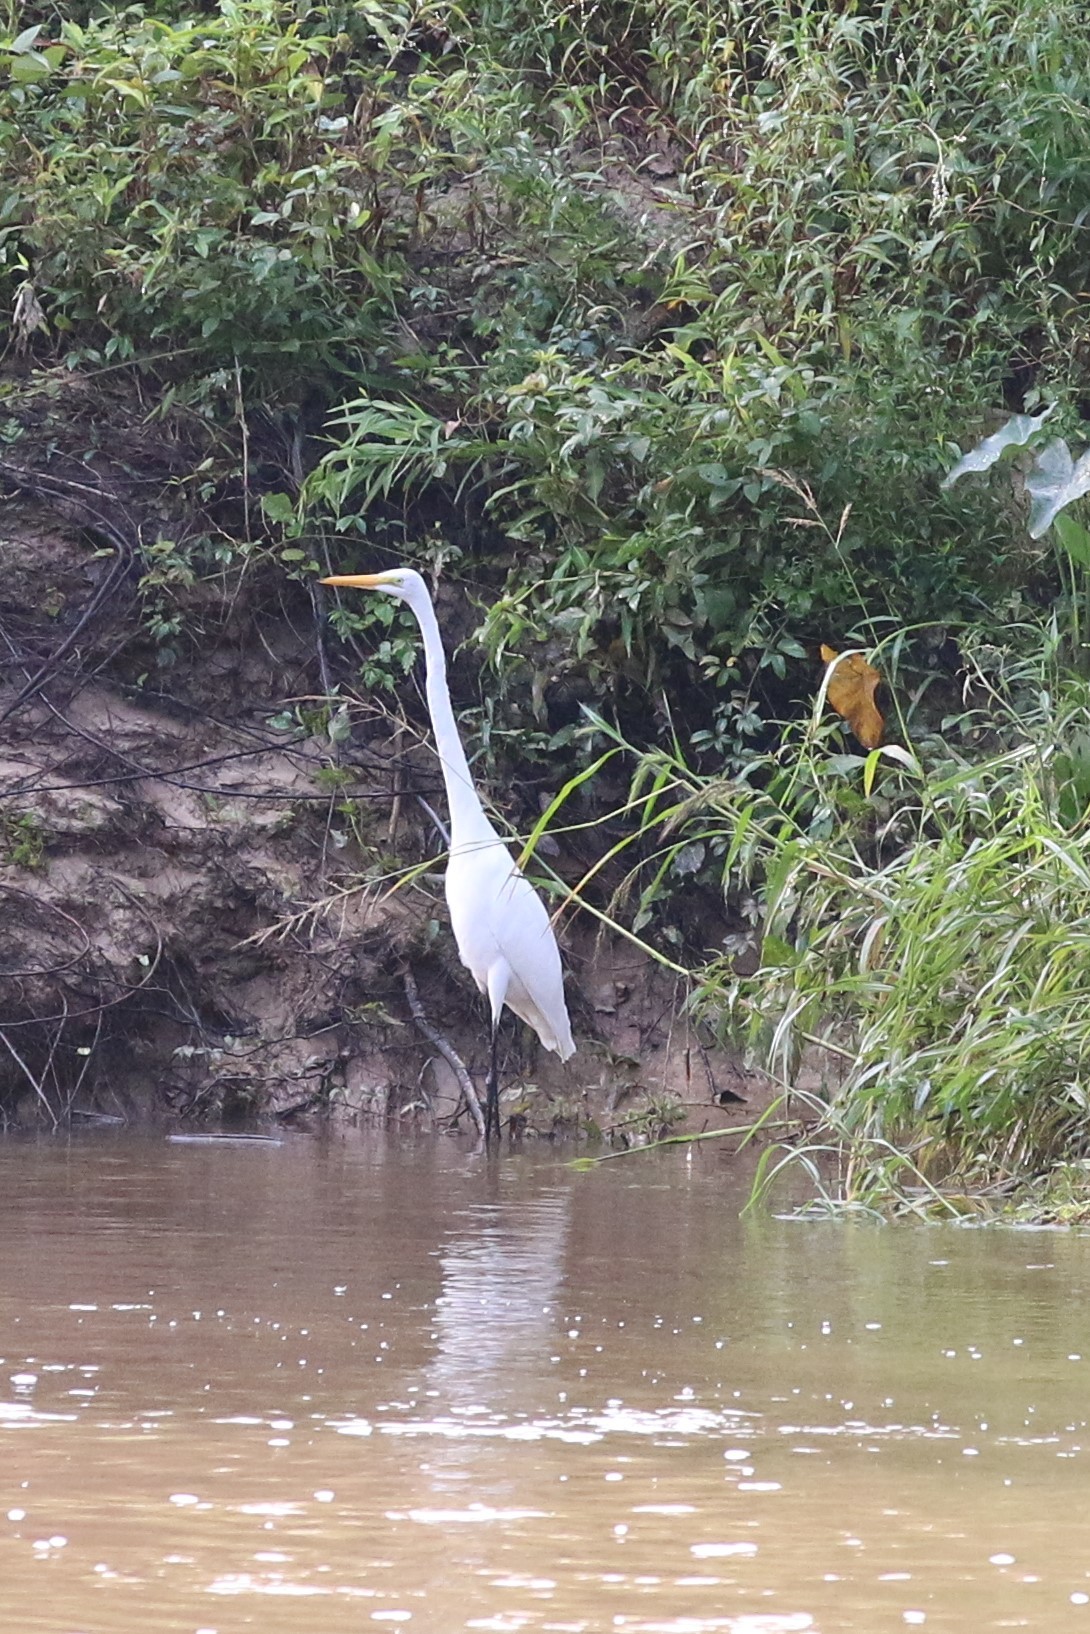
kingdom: Animalia
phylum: Chordata
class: Aves
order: Pelecaniformes
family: Ardeidae
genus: Ardea
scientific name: Ardea alba
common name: Great egret
